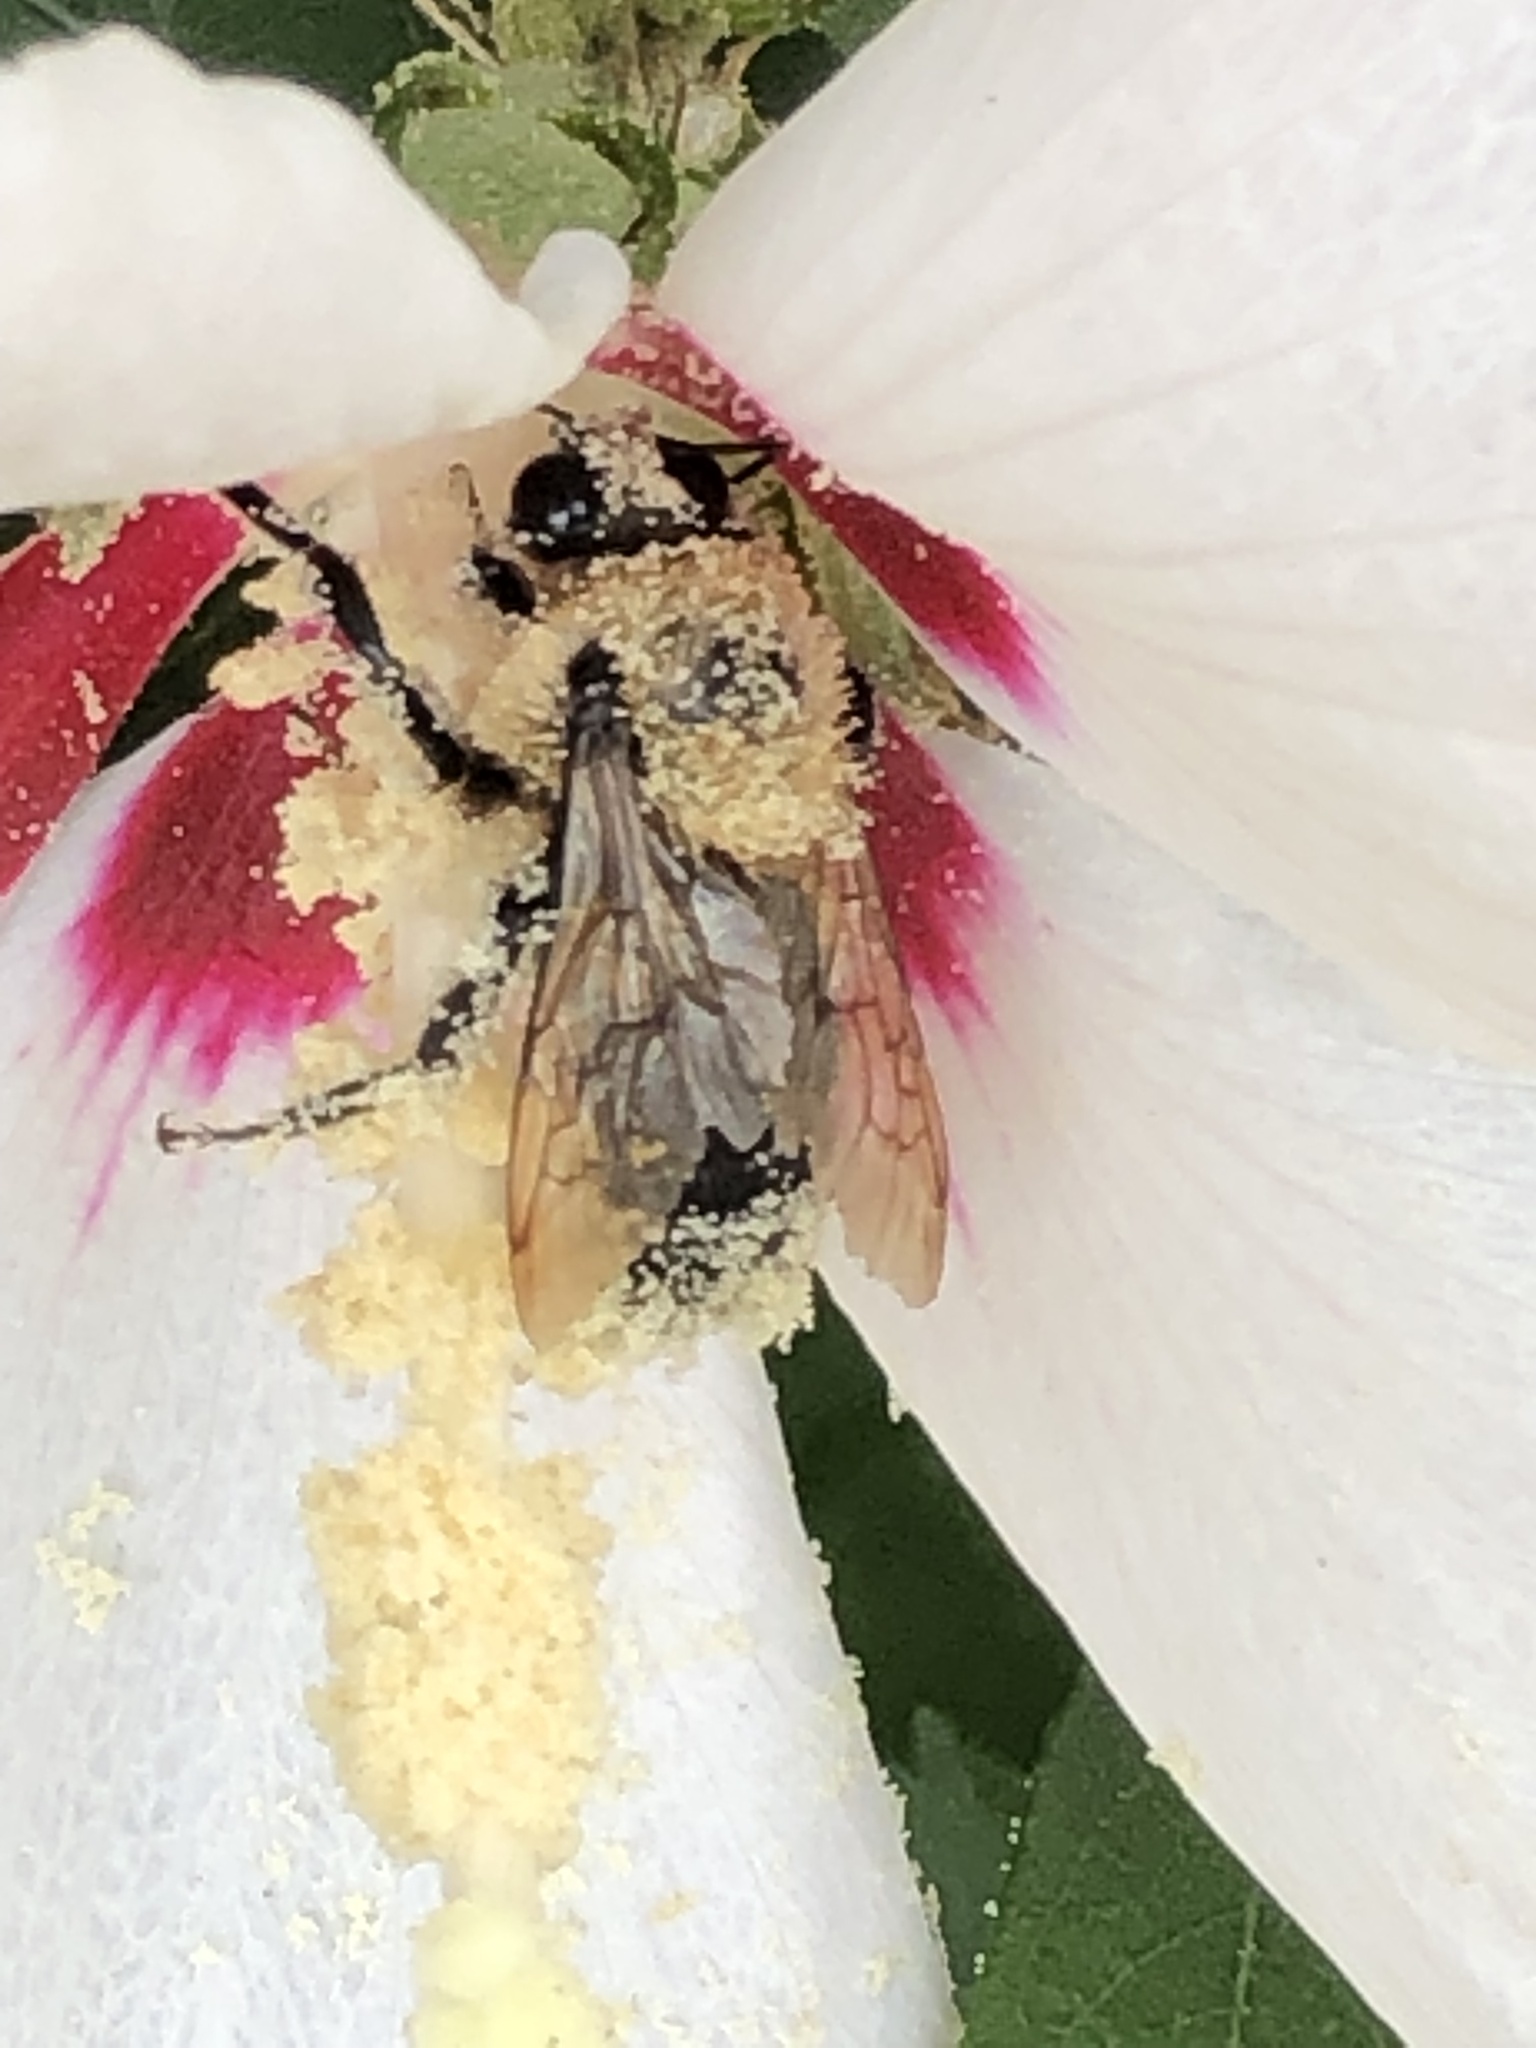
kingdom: Animalia
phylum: Arthropoda
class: Insecta
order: Hymenoptera
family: Apidae
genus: Bombus
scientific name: Bombus griseocollis
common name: Brown-belted bumble bee
